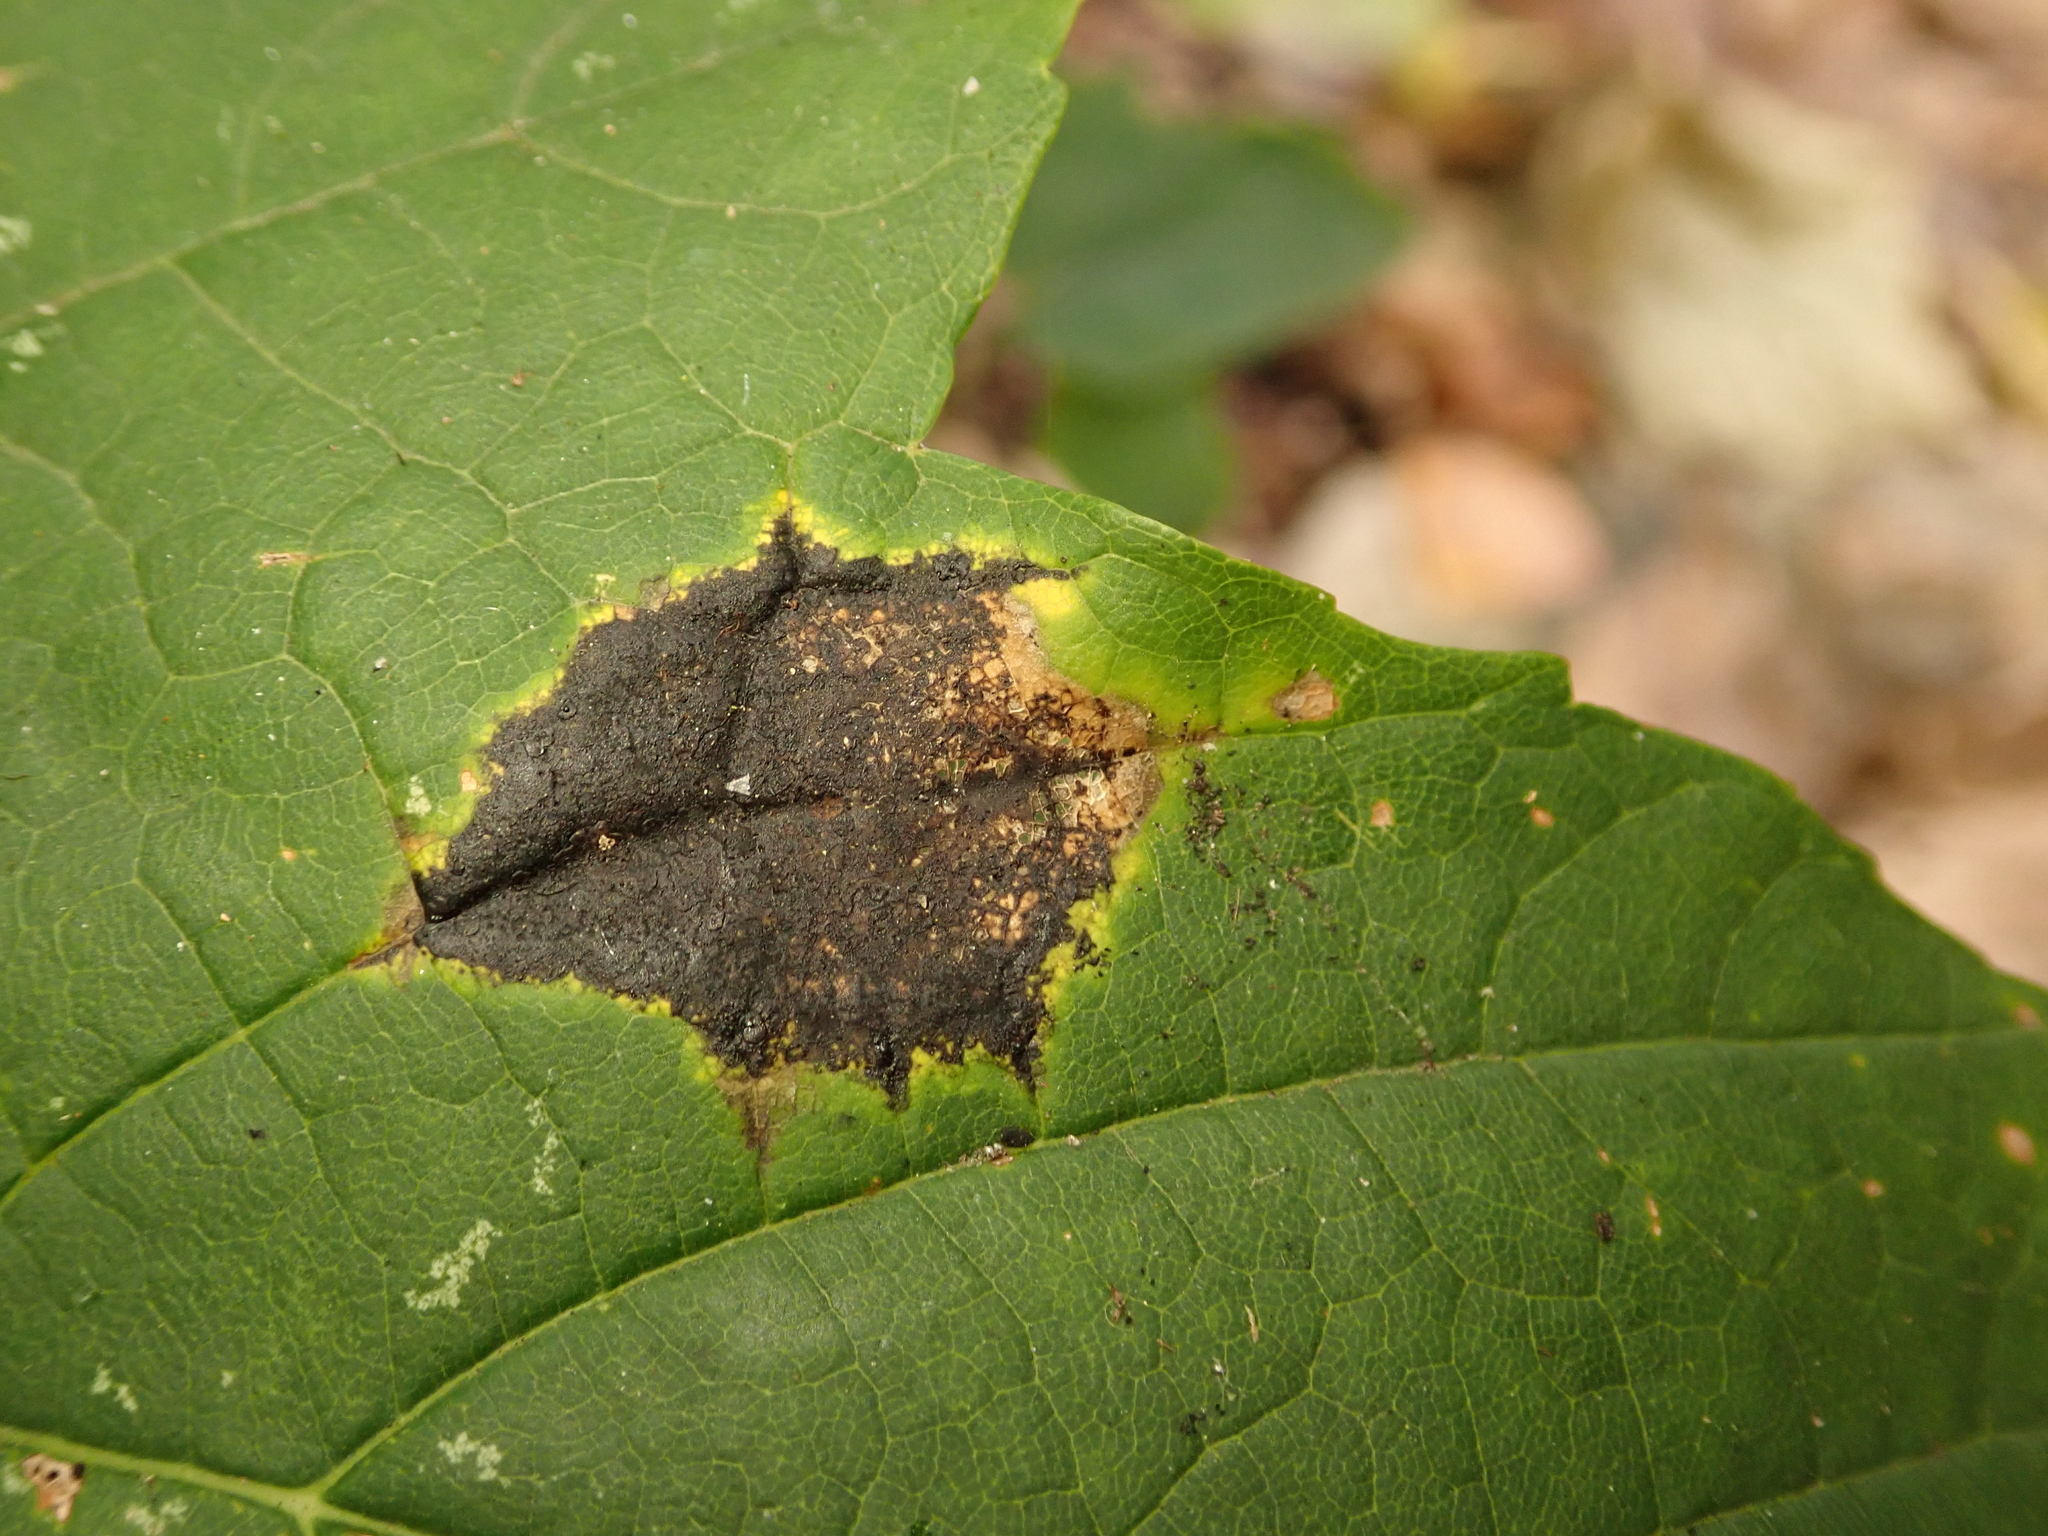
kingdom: Fungi
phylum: Ascomycota
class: Leotiomycetes
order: Rhytismatales
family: Rhytismataceae
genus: Rhytisma
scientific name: Rhytisma acerinum
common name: European tar spot
